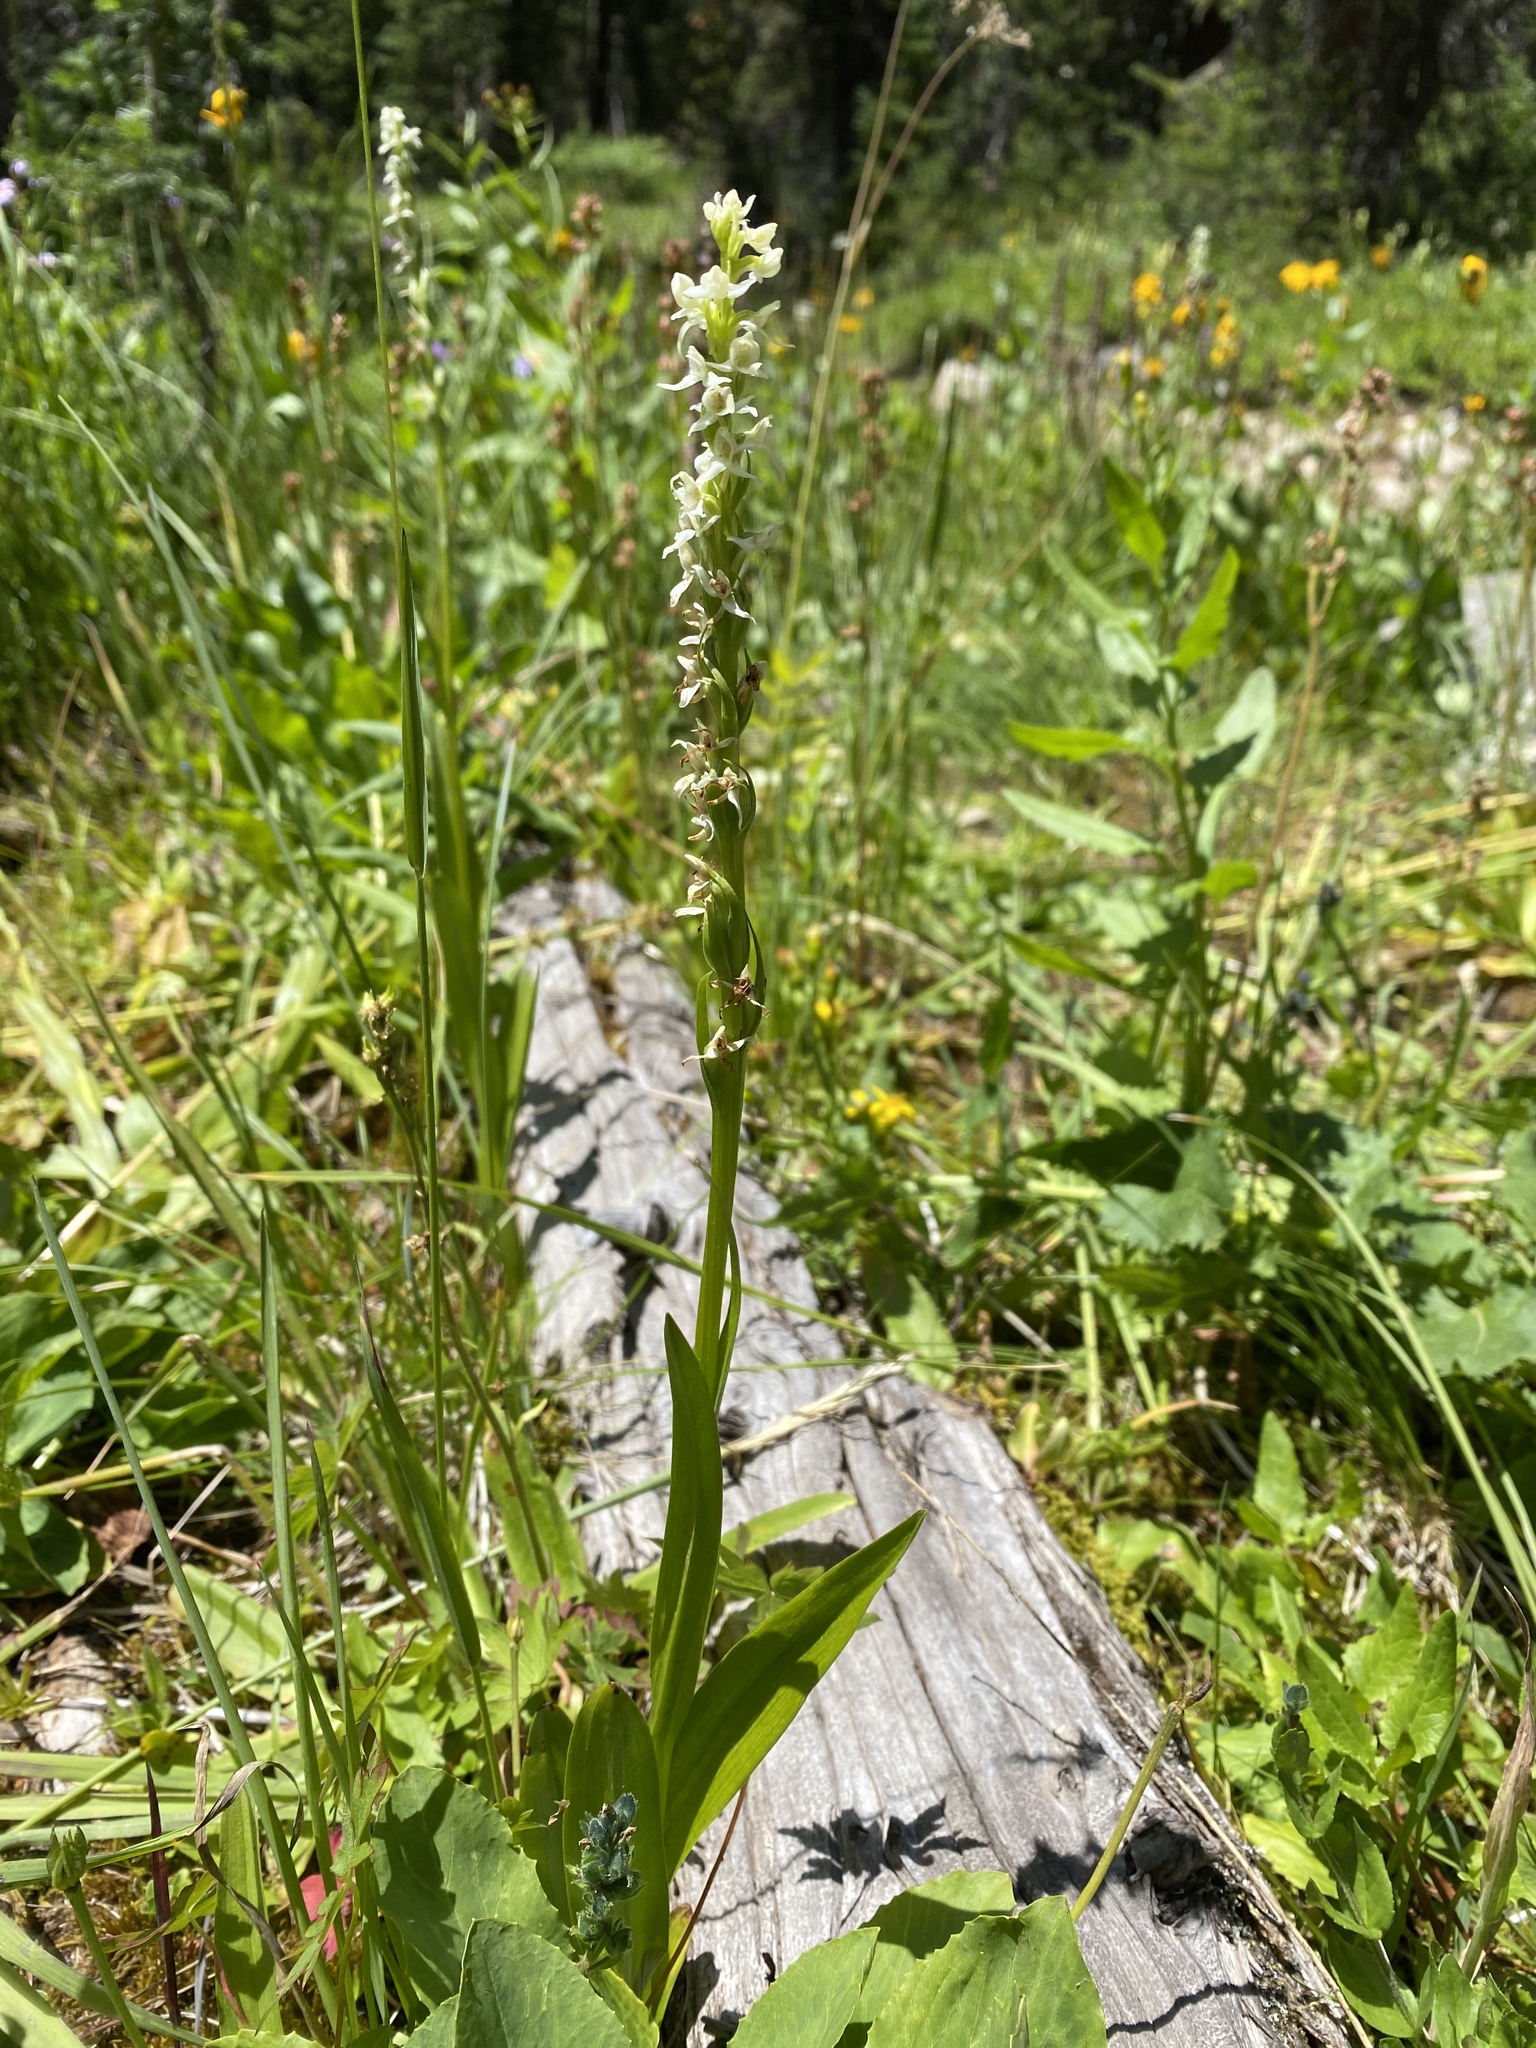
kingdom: Plantae
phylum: Tracheophyta
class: Liliopsida
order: Asparagales
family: Orchidaceae
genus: Platanthera
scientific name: Platanthera dilatata
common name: Bog candles
